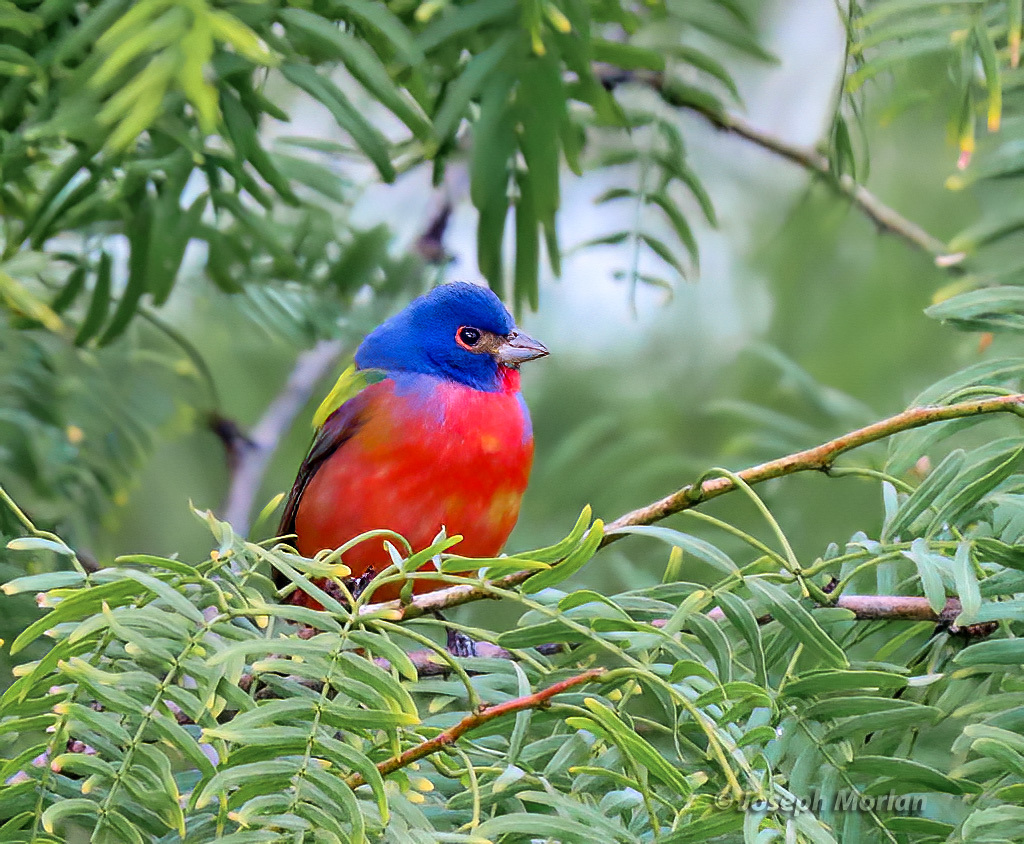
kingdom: Animalia
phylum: Chordata
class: Aves
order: Passeriformes
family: Cardinalidae
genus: Passerina
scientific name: Passerina ciris
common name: Painted bunting
